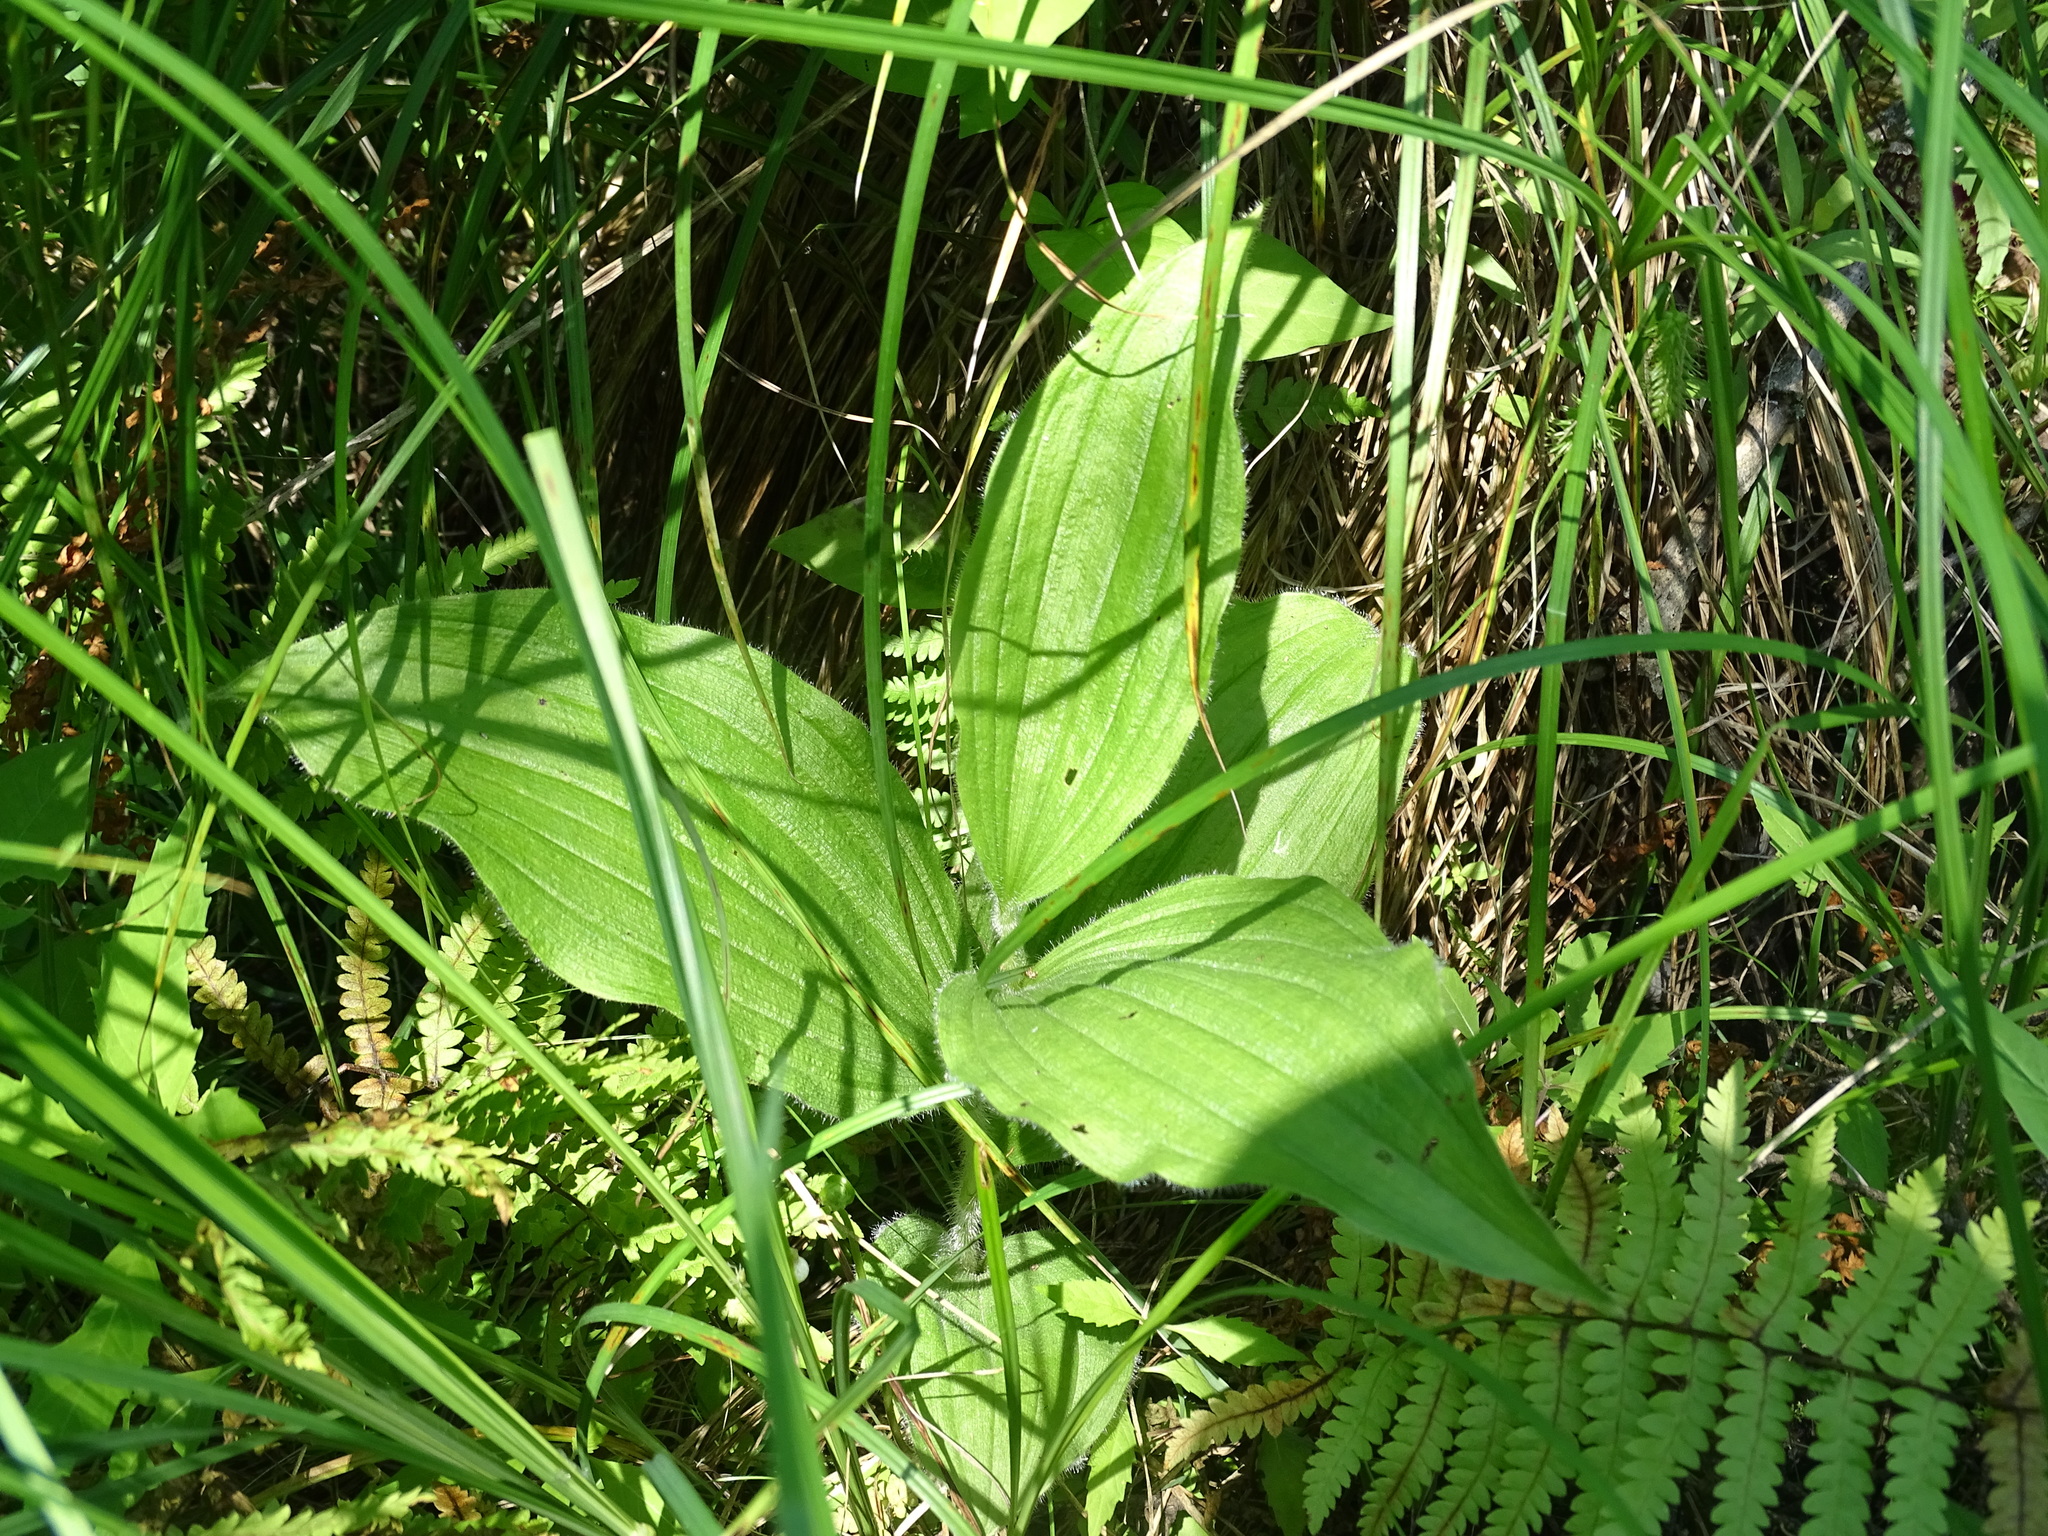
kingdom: Plantae
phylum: Tracheophyta
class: Liliopsida
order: Asparagales
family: Orchidaceae
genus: Cypripedium
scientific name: Cypripedium reginae
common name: Queen lady's-slipper
